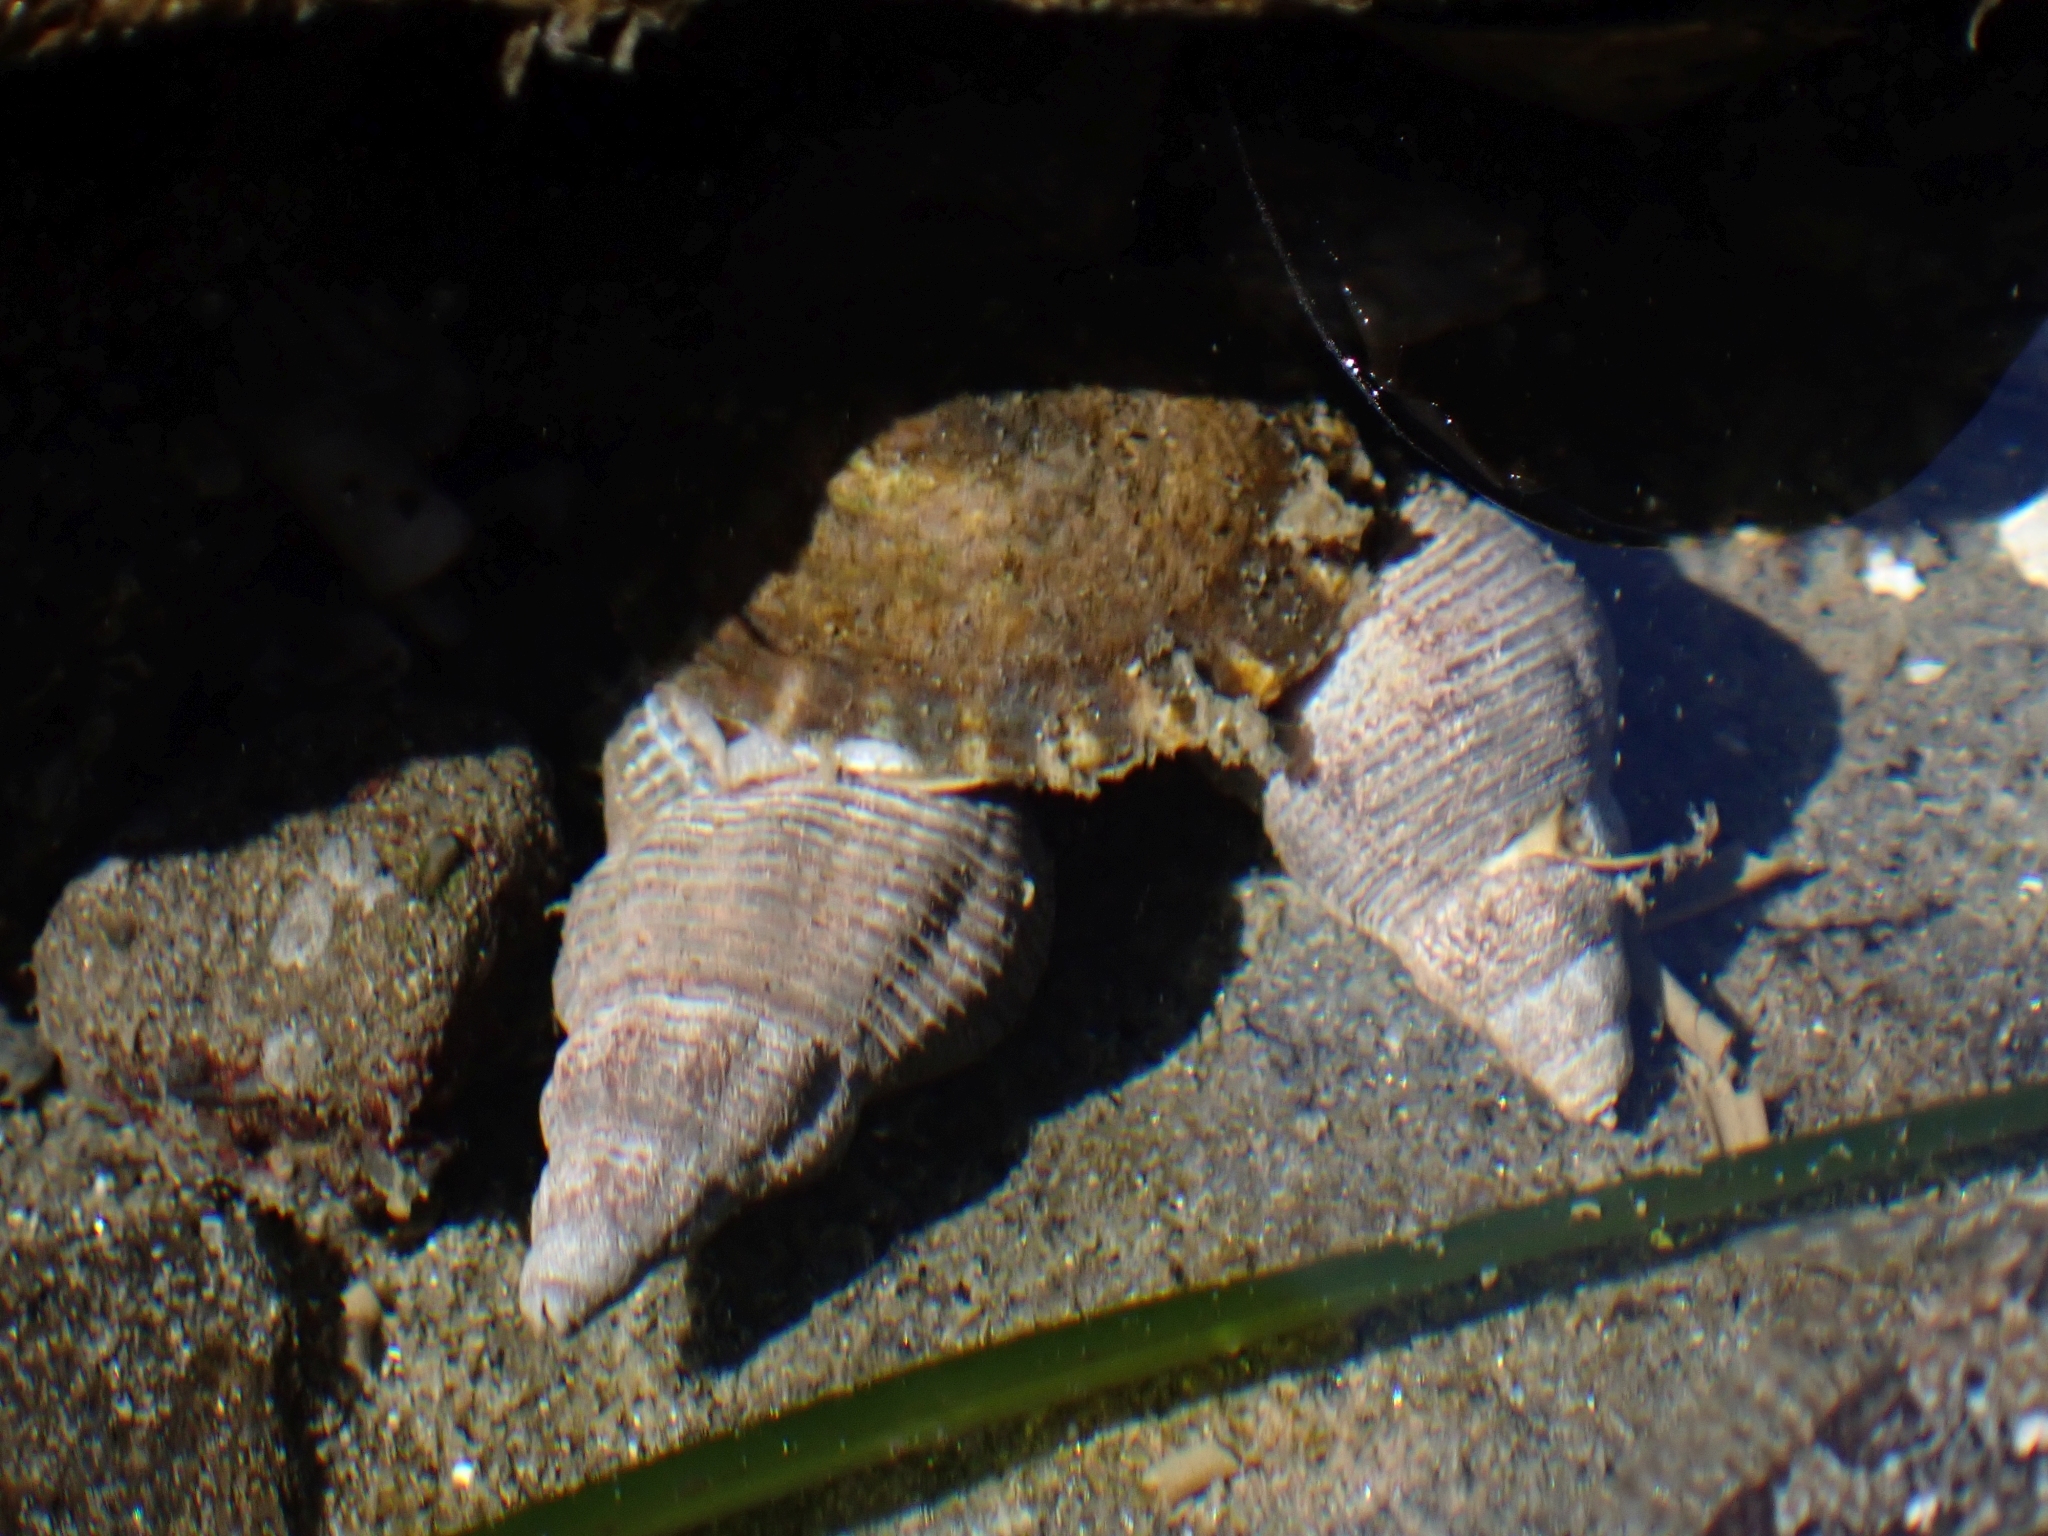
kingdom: Animalia
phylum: Mollusca
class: Gastropoda
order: Neogastropoda
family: Tudiclidae
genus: Lirabuccinum
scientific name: Lirabuccinum dirum
